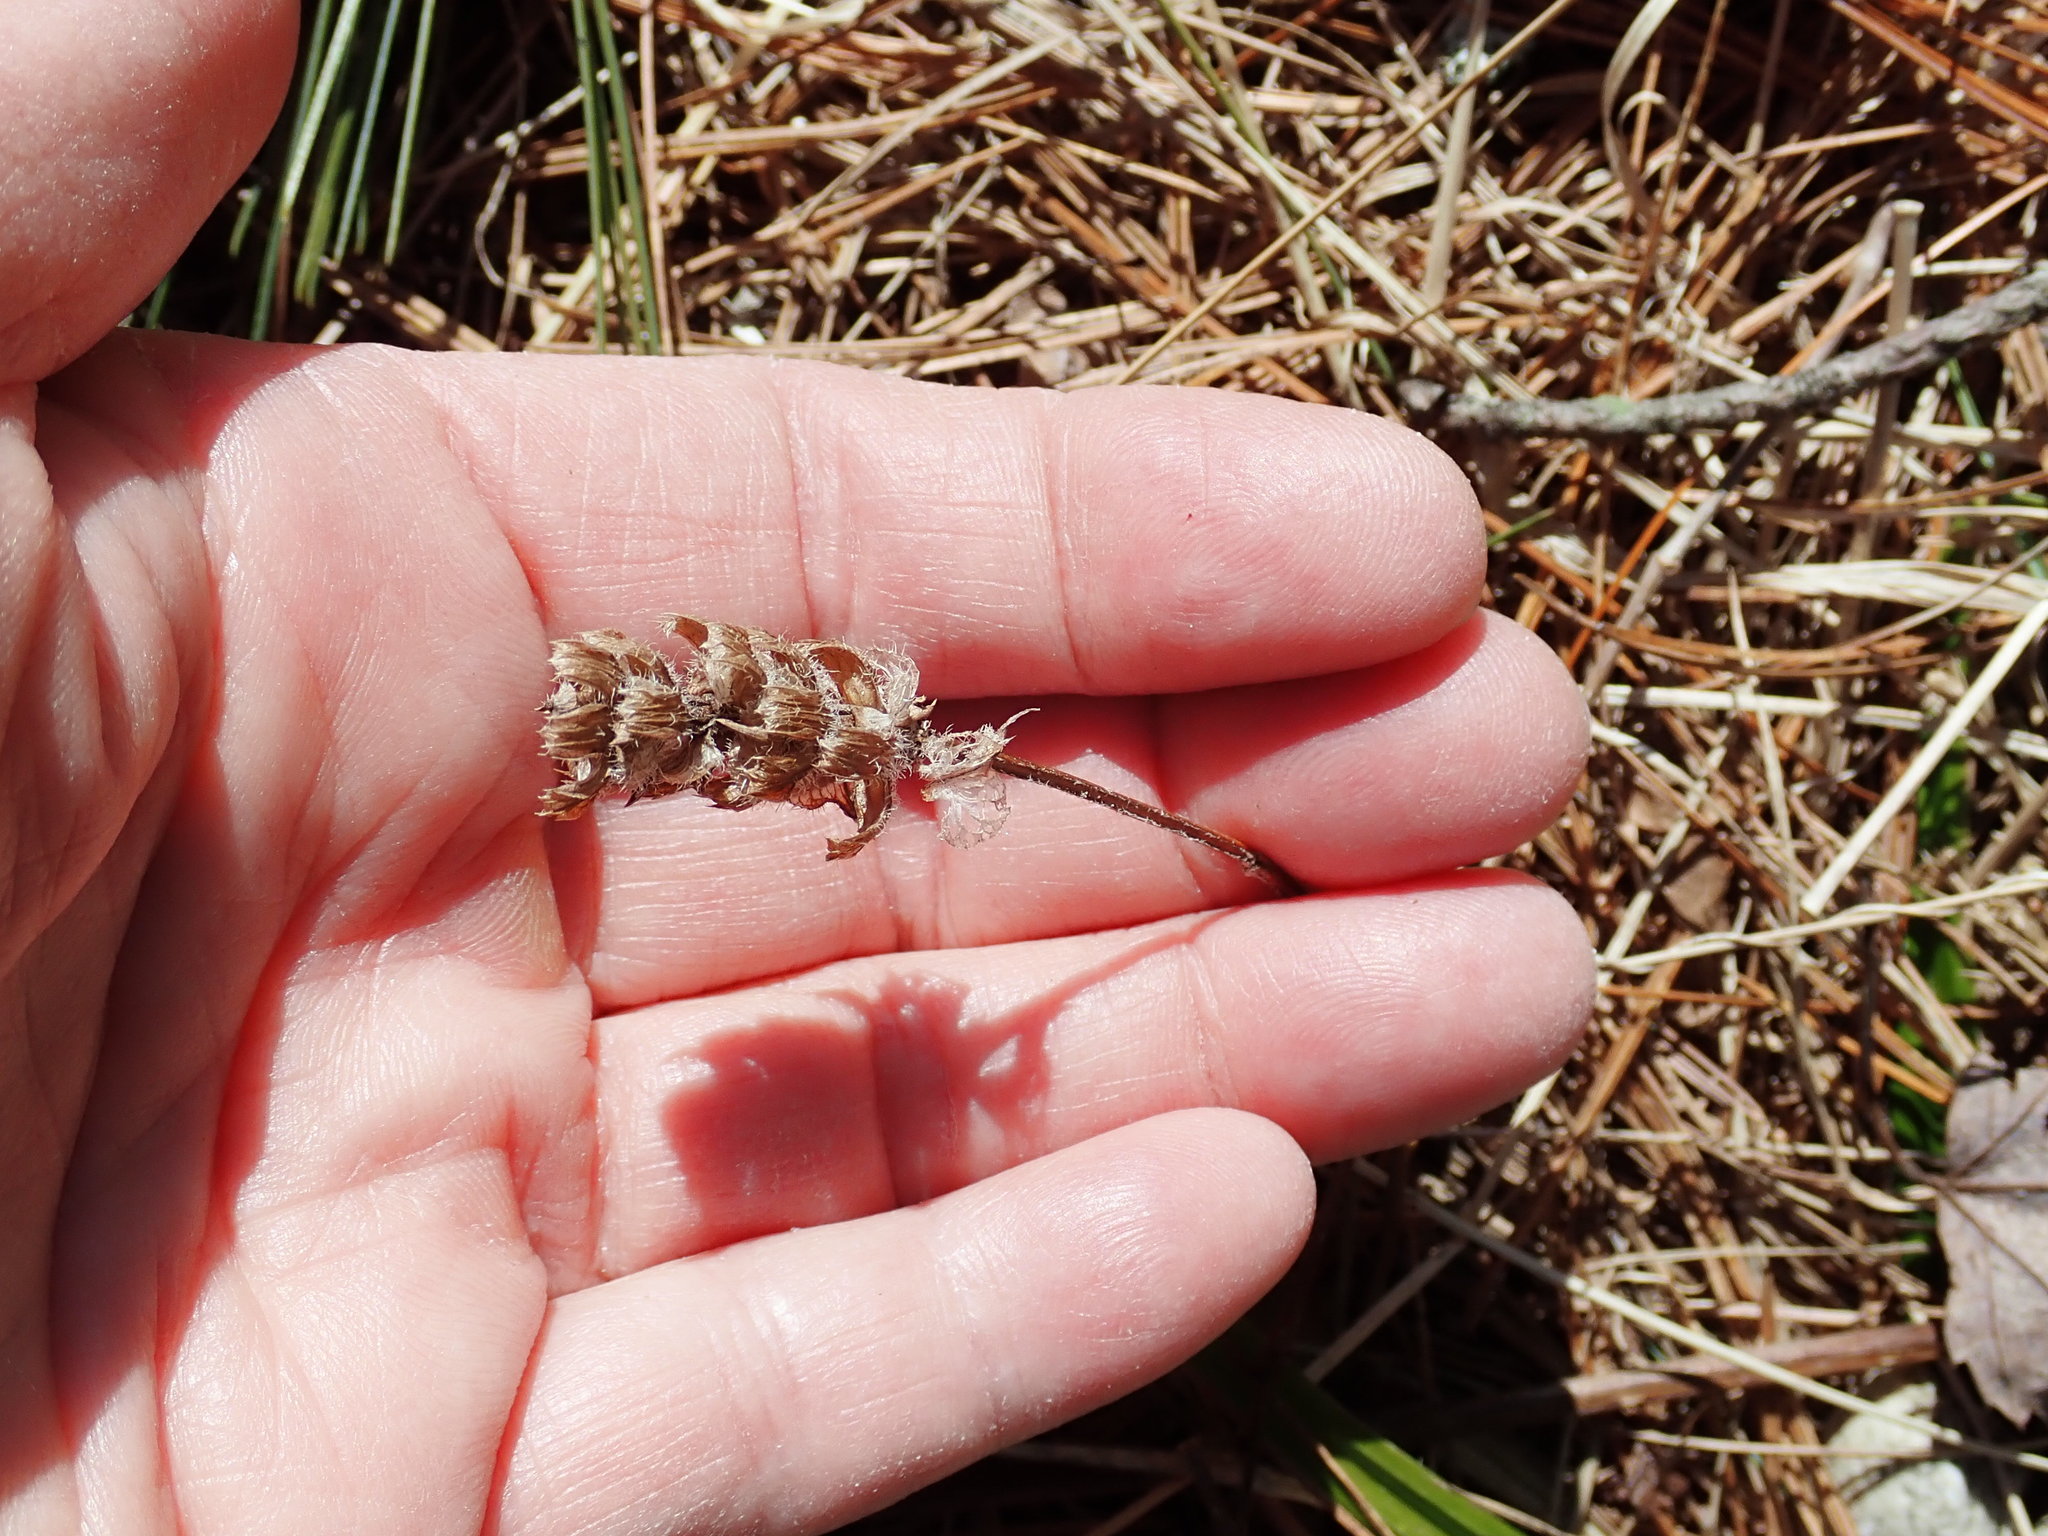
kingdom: Plantae
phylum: Tracheophyta
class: Magnoliopsida
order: Lamiales
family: Lamiaceae
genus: Prunella
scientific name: Prunella vulgaris
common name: Heal-all
